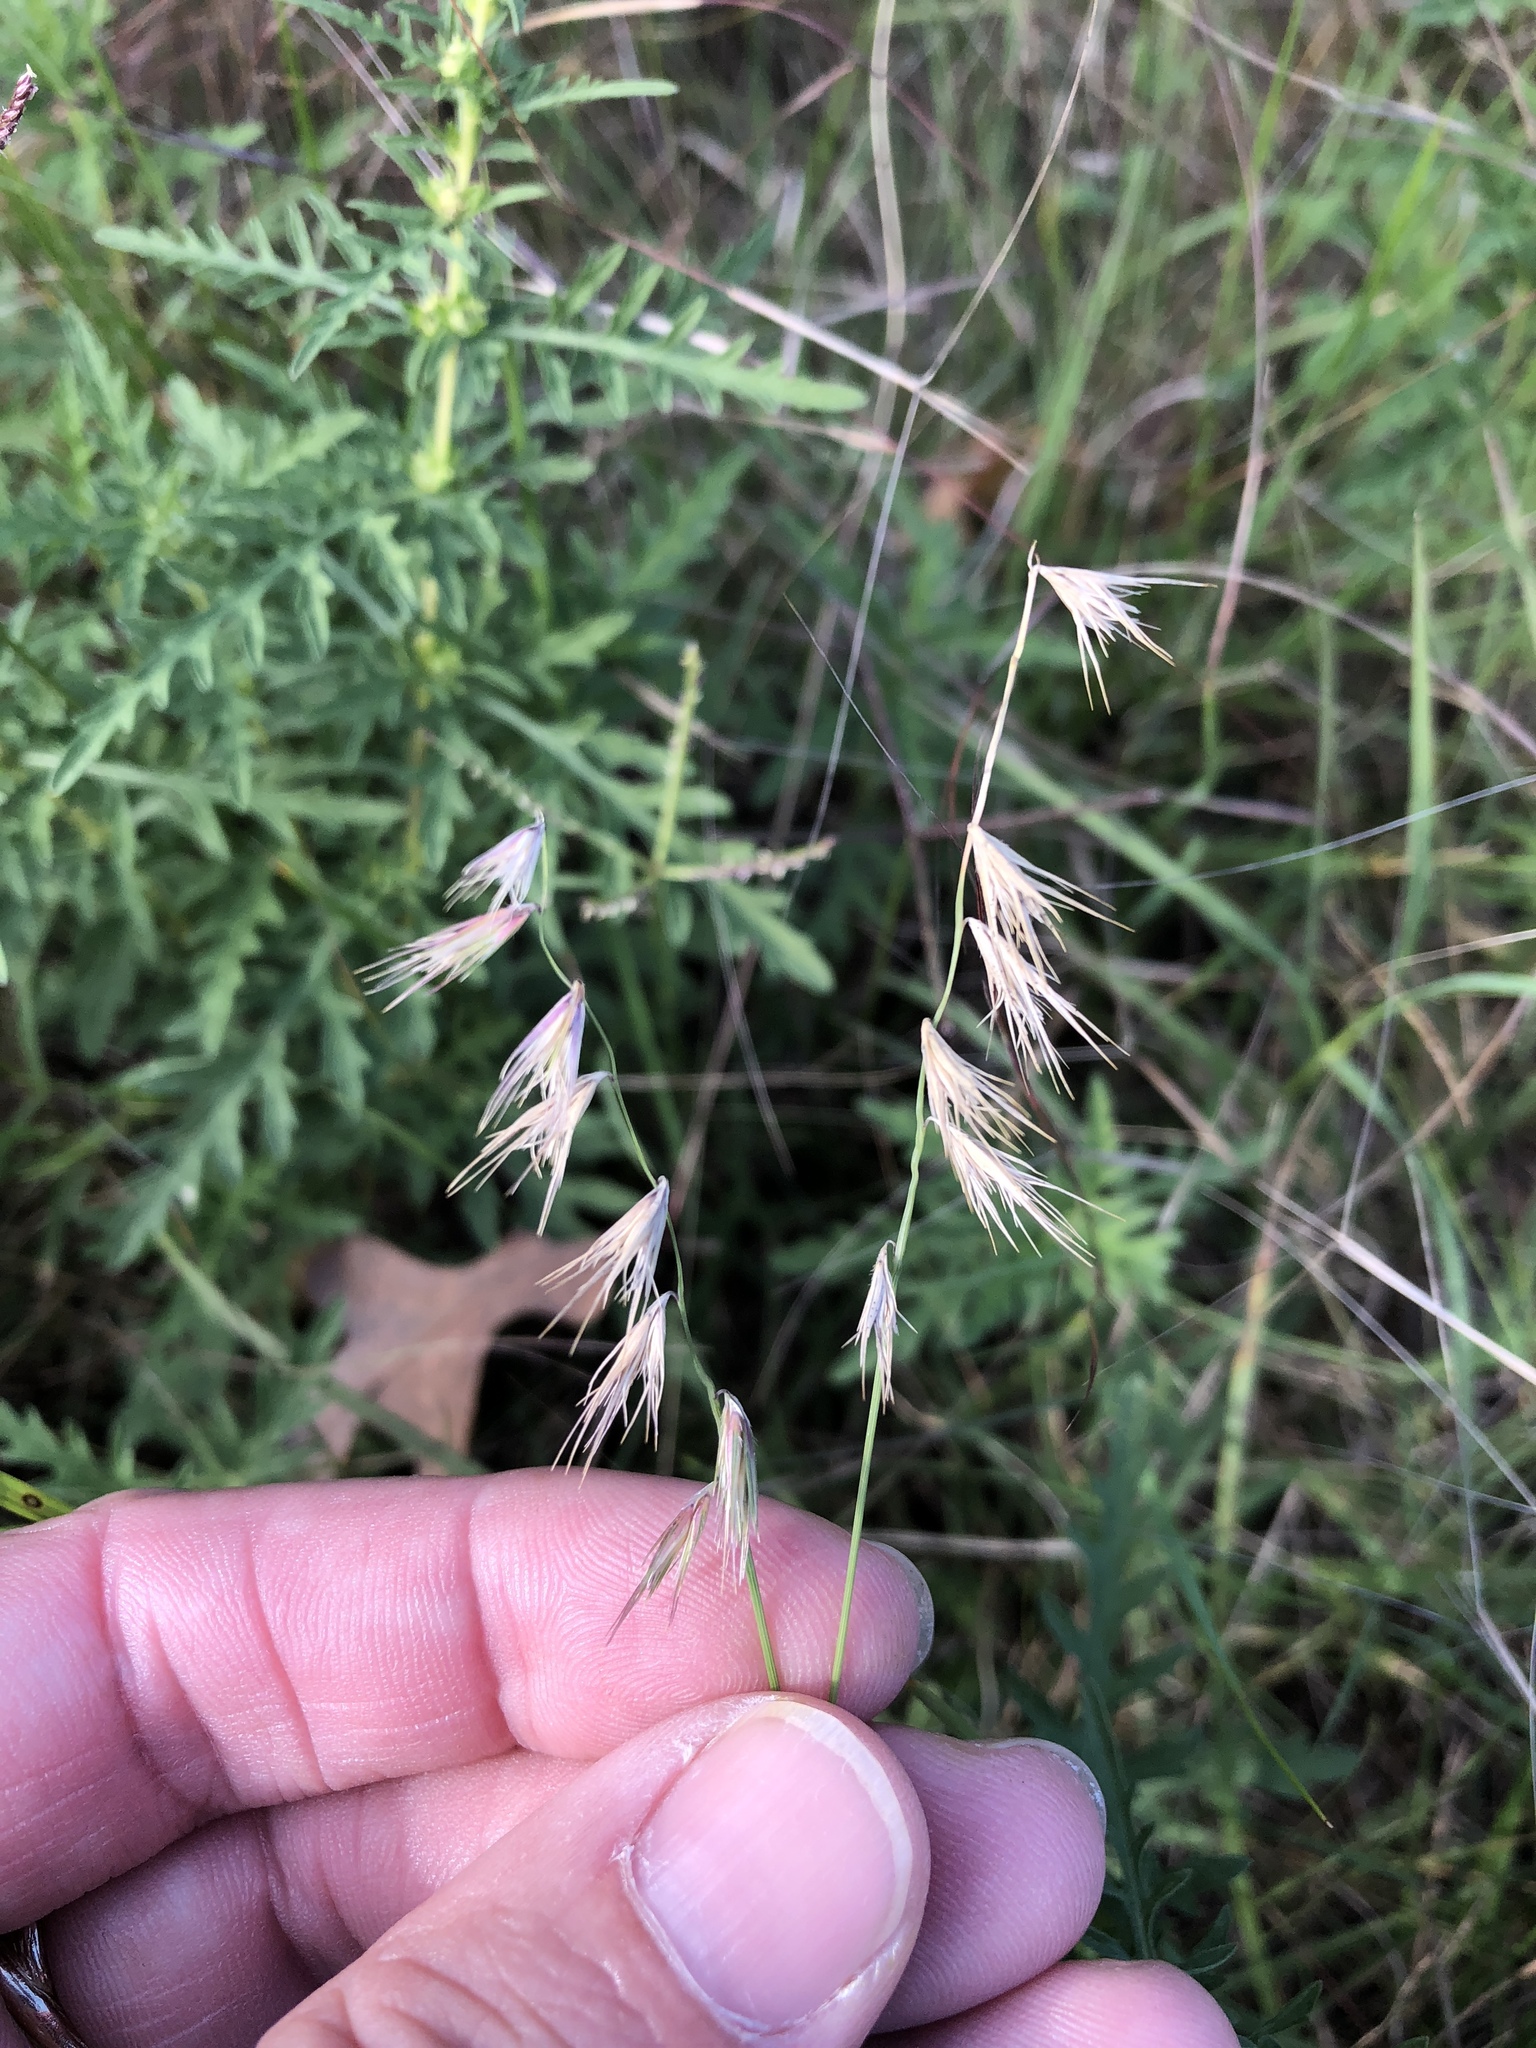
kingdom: Plantae
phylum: Tracheophyta
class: Liliopsida
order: Poales
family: Poaceae
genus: Bouteloua
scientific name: Bouteloua rigidiseta
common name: Texas grama
